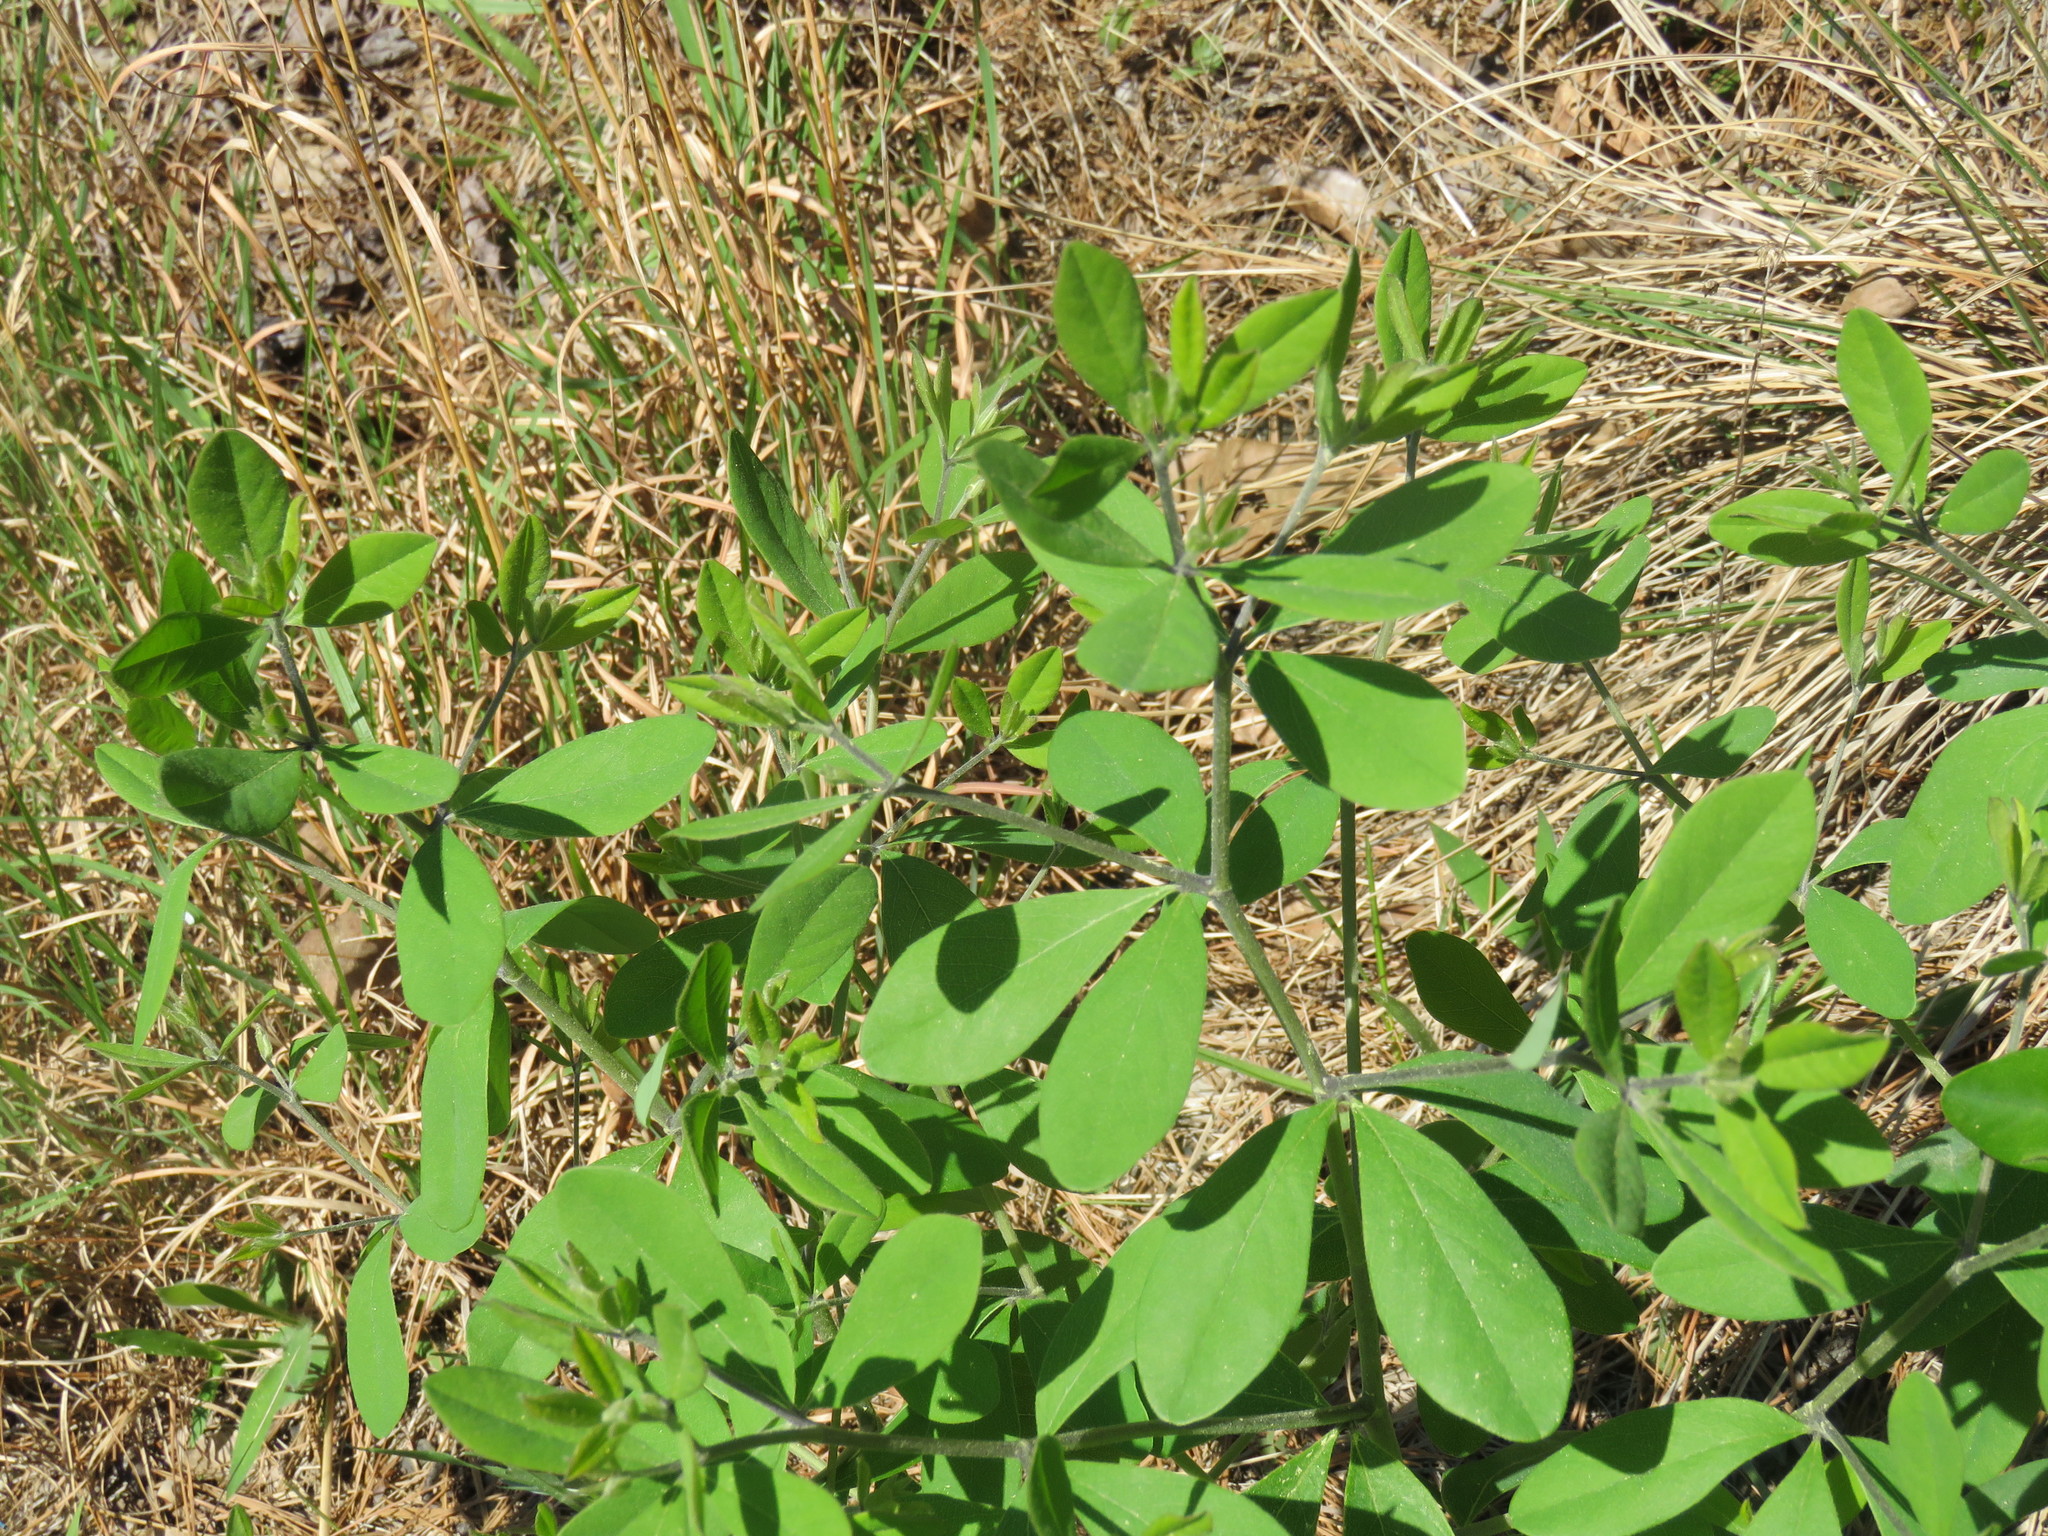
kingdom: Plantae
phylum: Tracheophyta
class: Magnoliopsida
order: Fabales
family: Fabaceae
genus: Baptisia
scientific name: Baptisia nuttalliana
